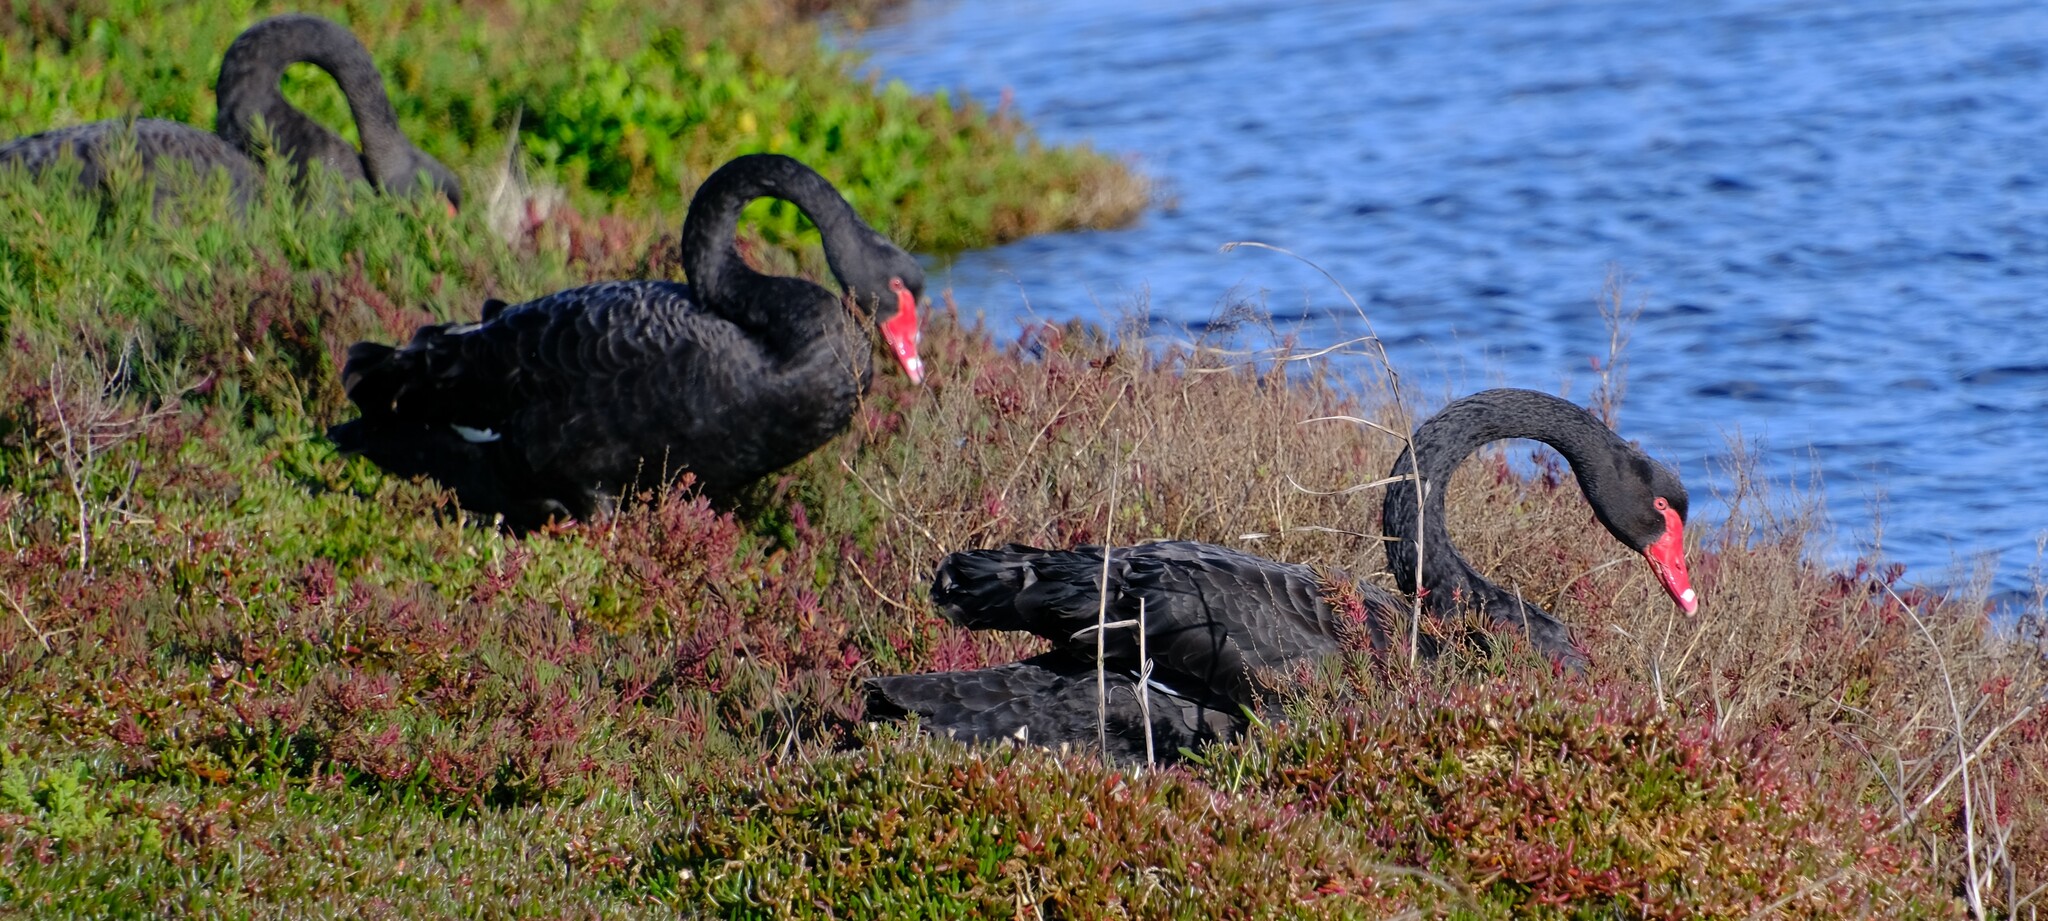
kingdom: Animalia
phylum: Chordata
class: Aves
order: Anseriformes
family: Anatidae
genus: Cygnus
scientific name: Cygnus atratus
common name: Black swan
